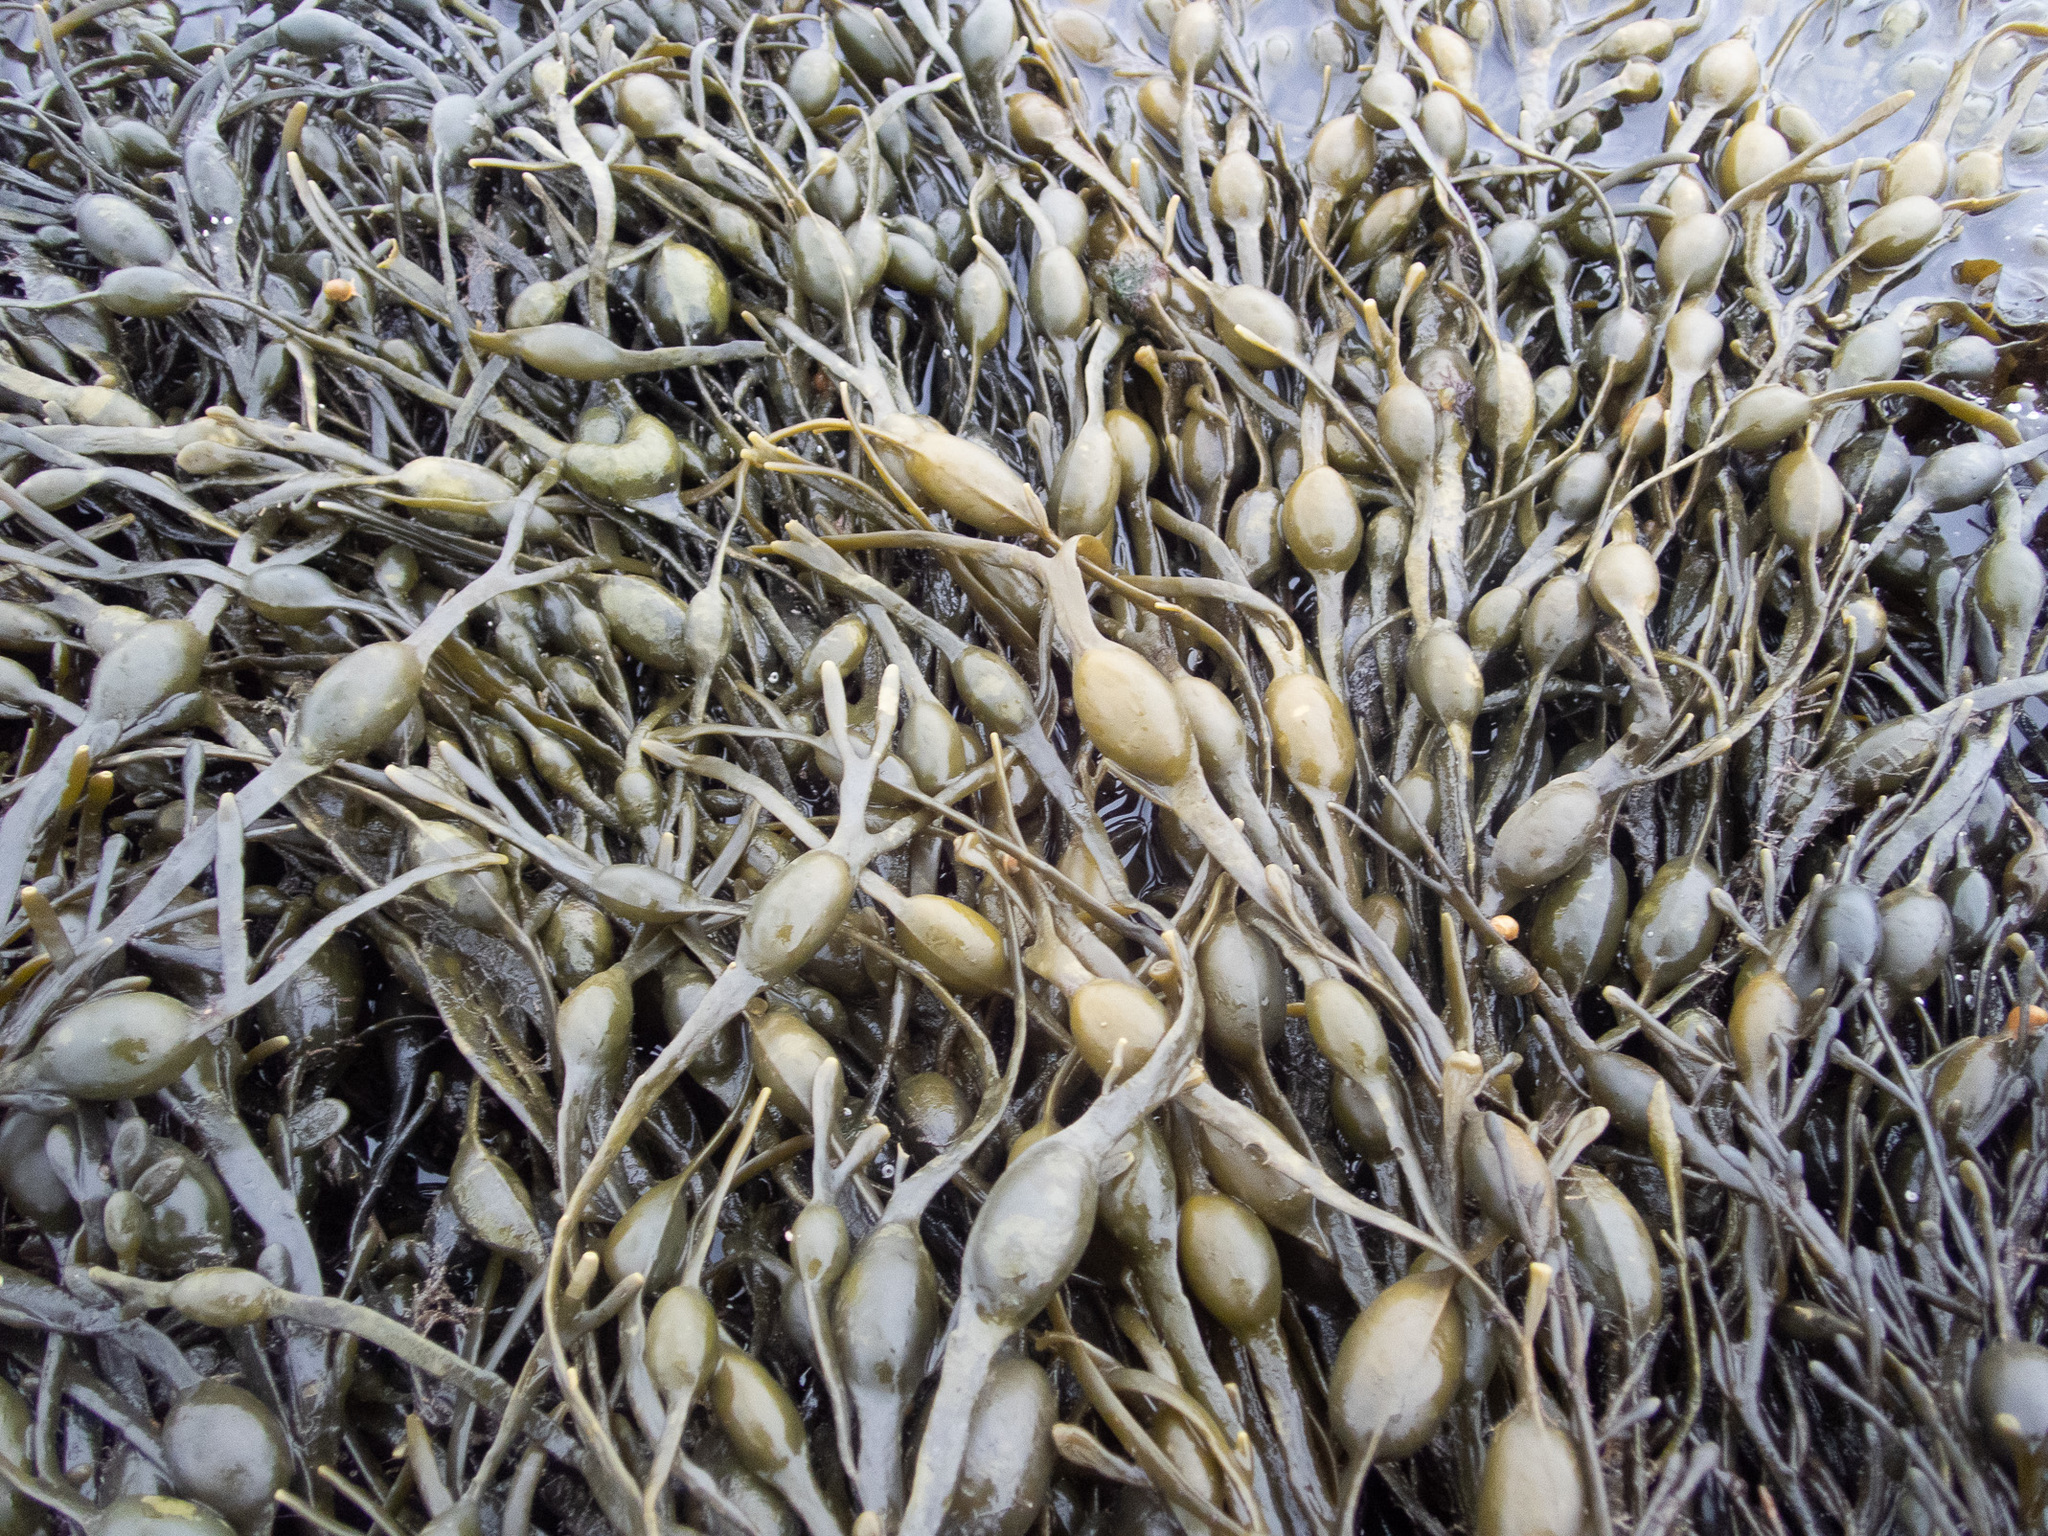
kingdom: Chromista
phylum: Ochrophyta
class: Phaeophyceae
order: Fucales
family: Fucaceae
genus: Ascophyllum
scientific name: Ascophyllum nodosum
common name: Knotted wrack
